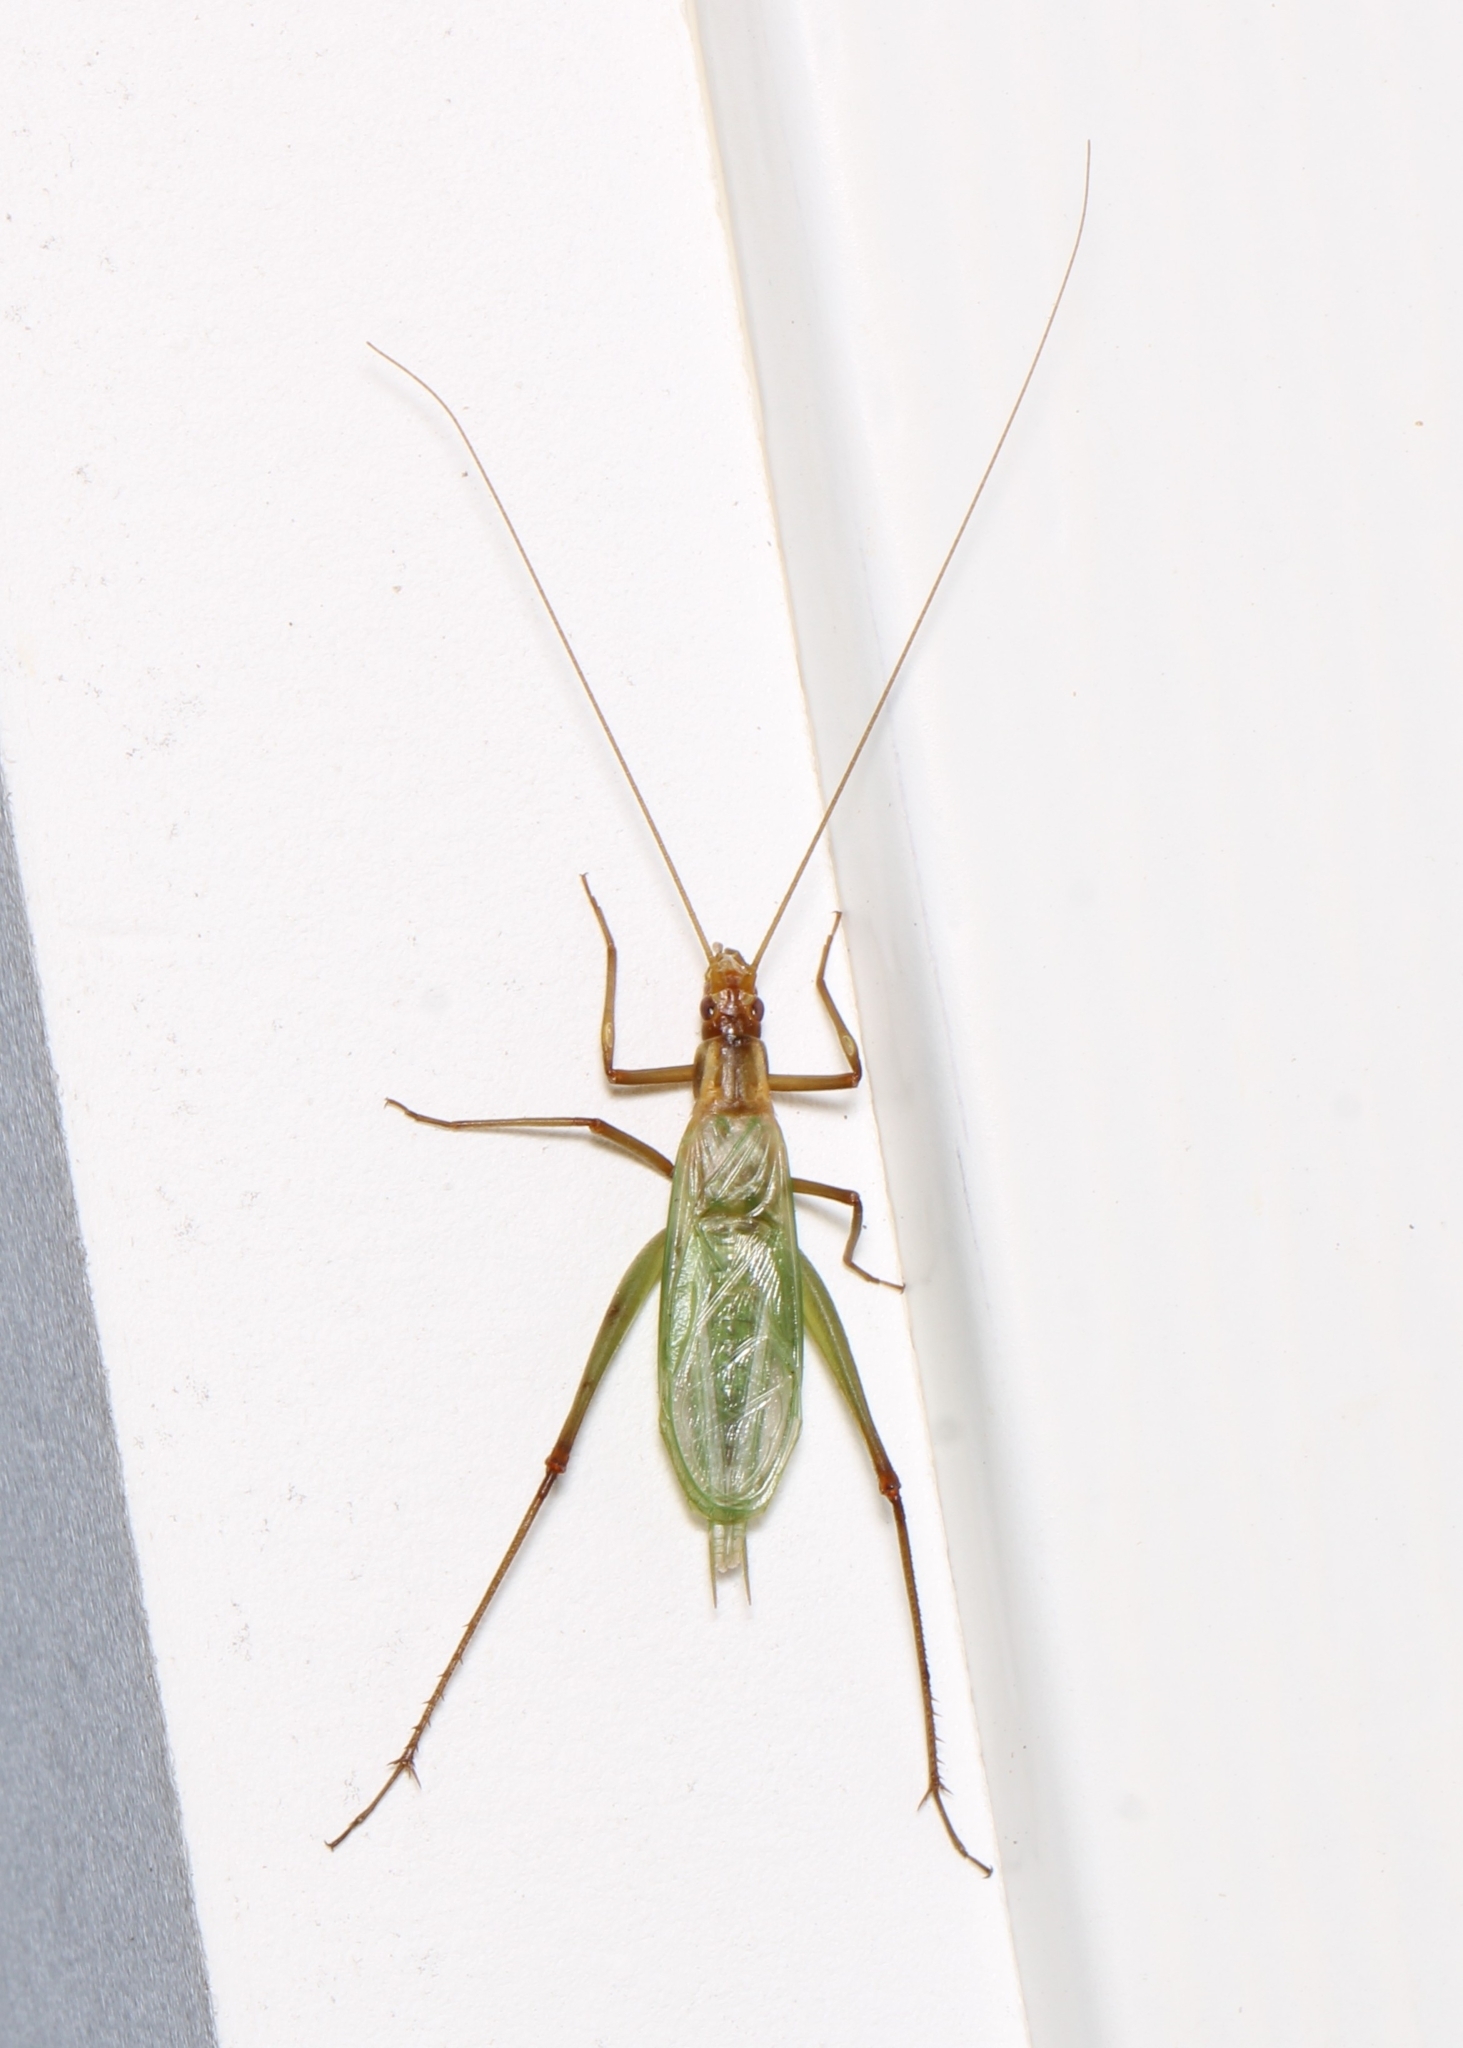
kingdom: Animalia
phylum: Arthropoda
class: Insecta
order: Orthoptera
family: Gryllidae
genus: Oecanthus
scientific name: Oecanthus pini
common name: Pine tree cricket
